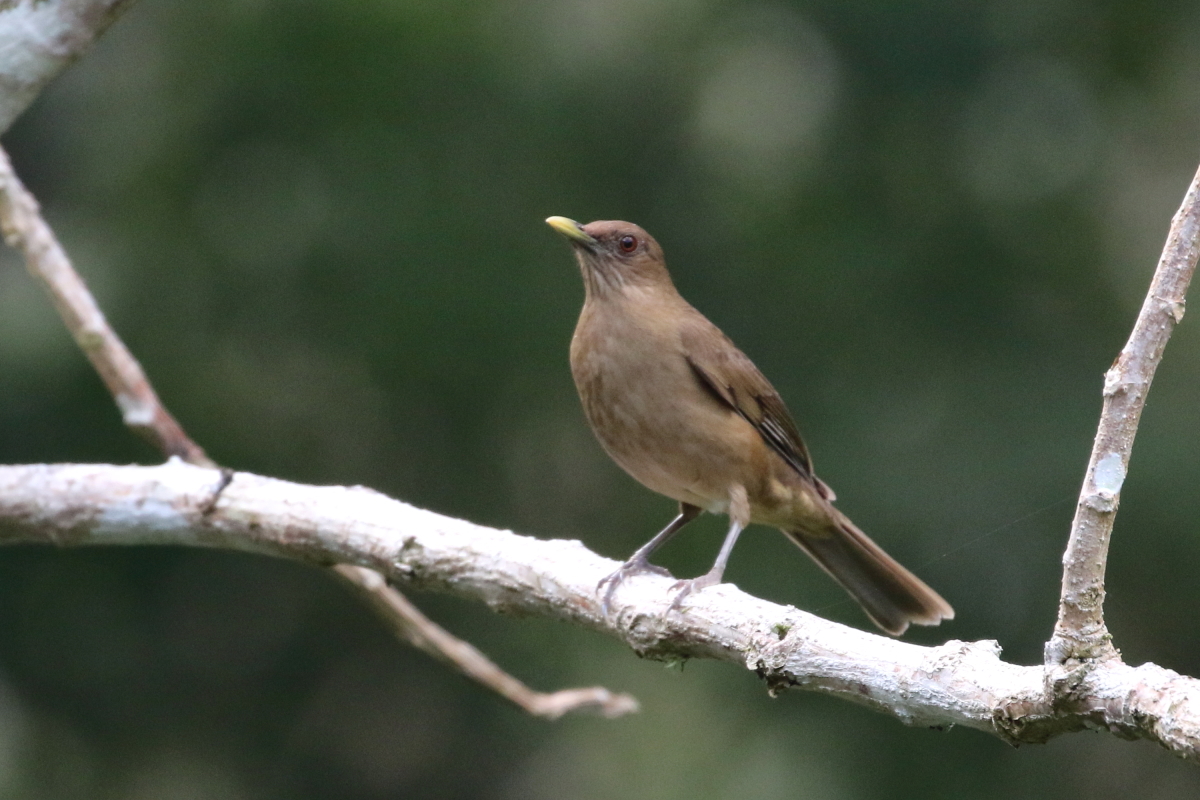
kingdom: Animalia
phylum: Chordata
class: Aves
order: Passeriformes
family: Turdidae
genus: Turdus
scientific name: Turdus grayi
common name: Clay-colored thrush
